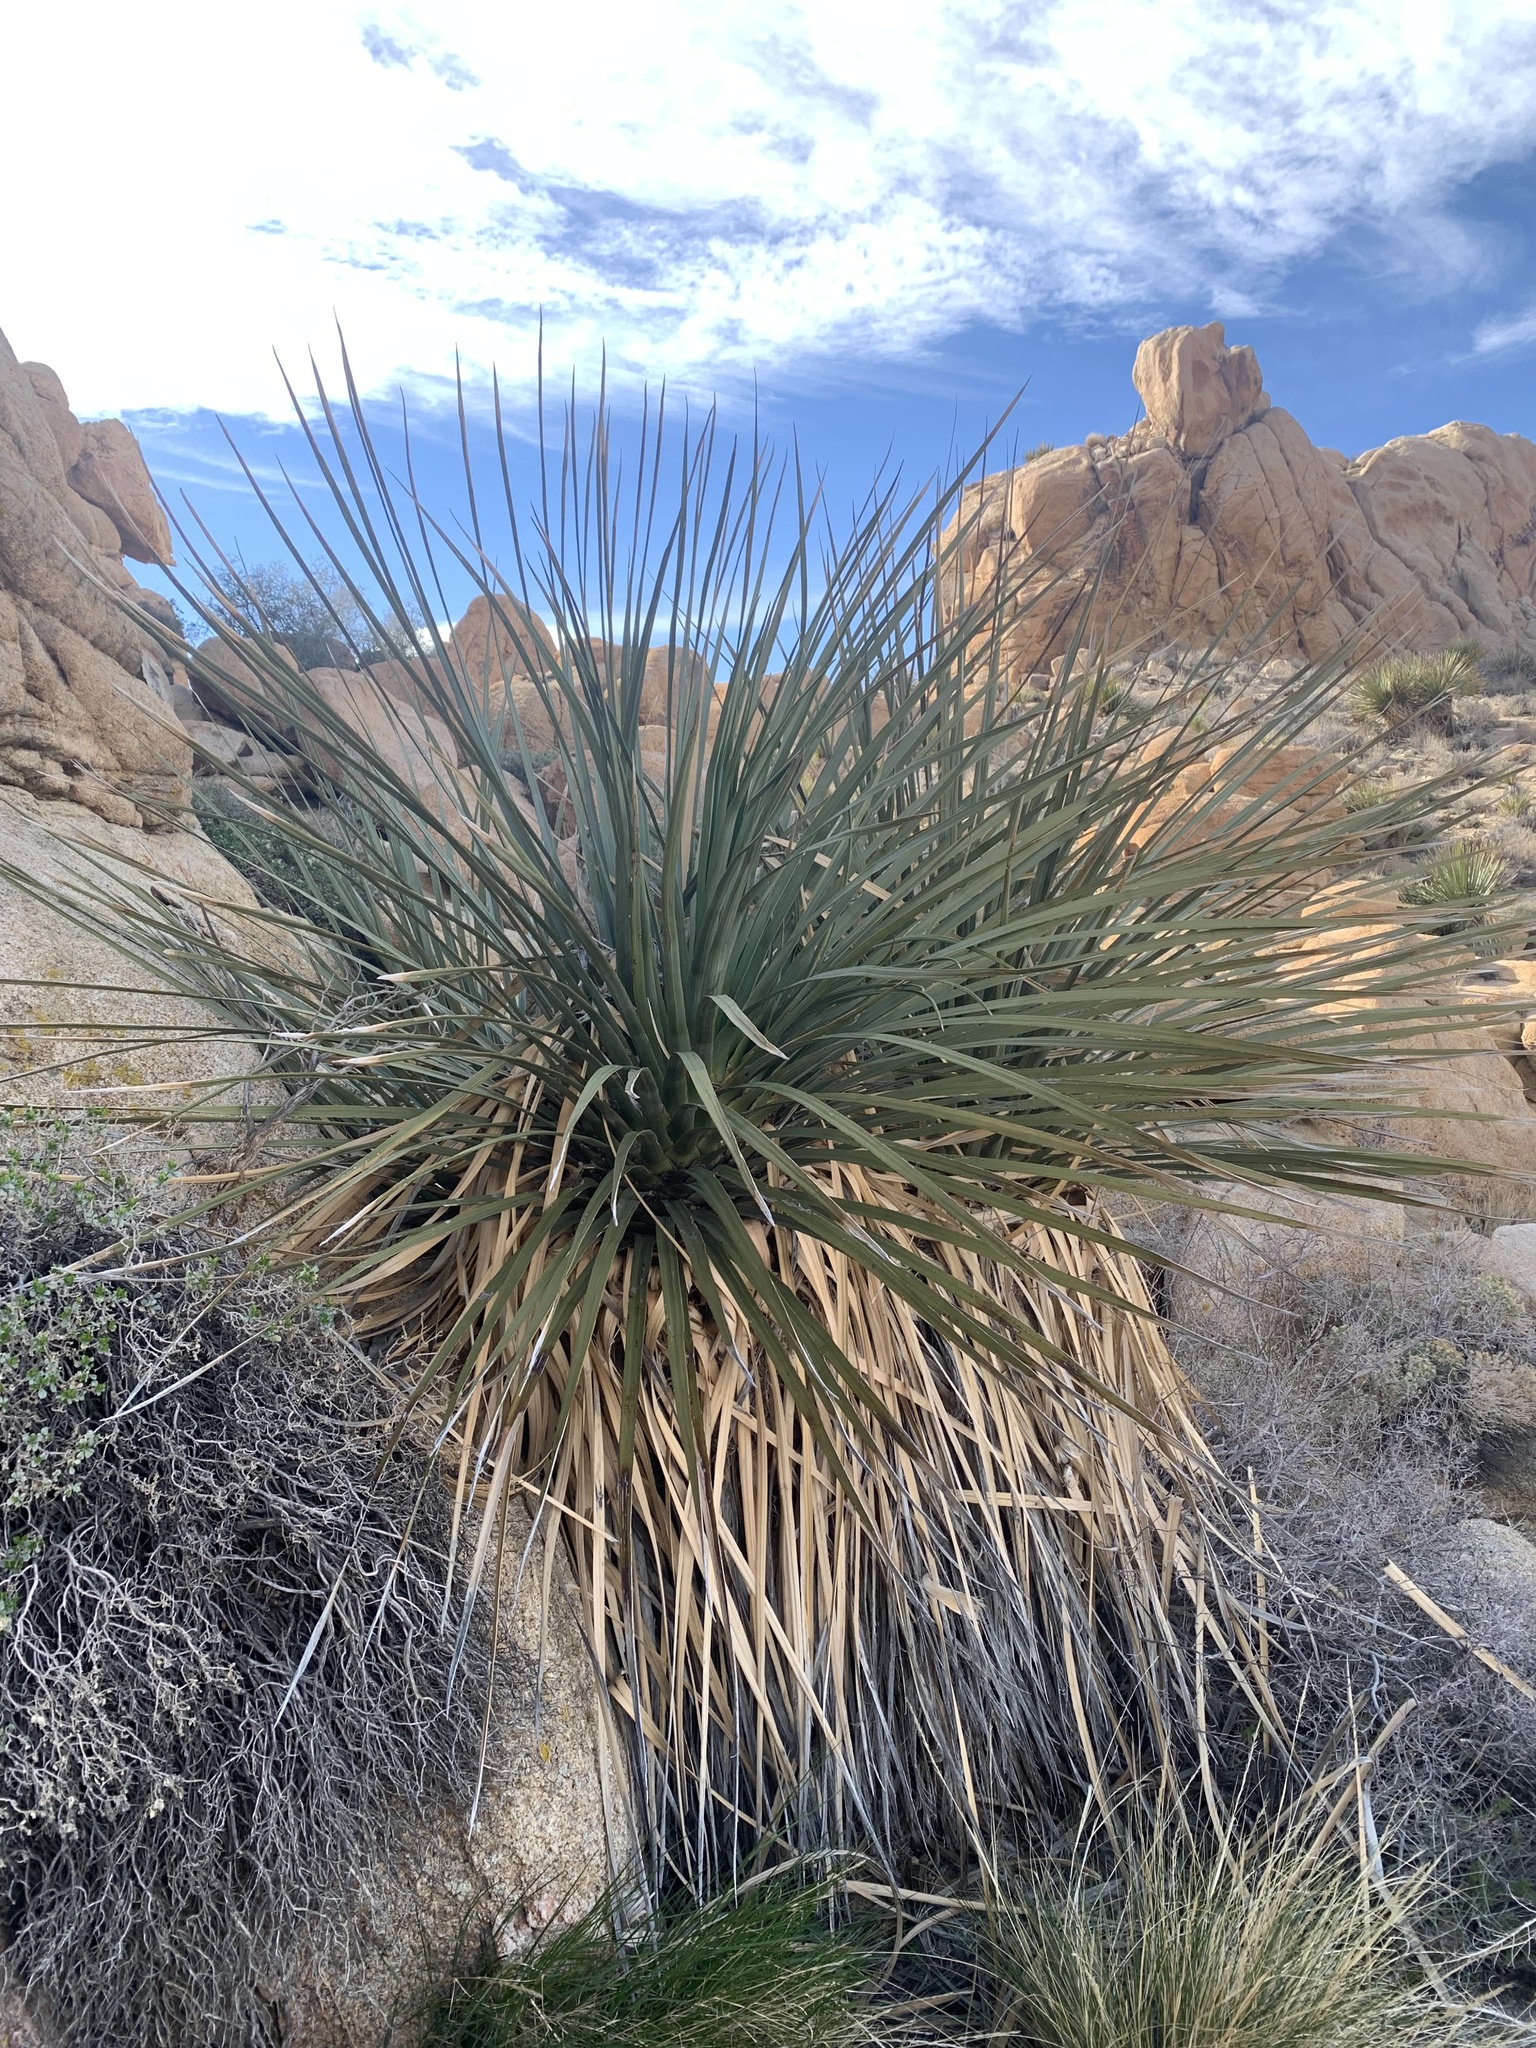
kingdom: Plantae
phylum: Tracheophyta
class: Liliopsida
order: Asparagales
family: Asparagaceae
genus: Nolina
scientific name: Nolina parryi
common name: Parry nolina
